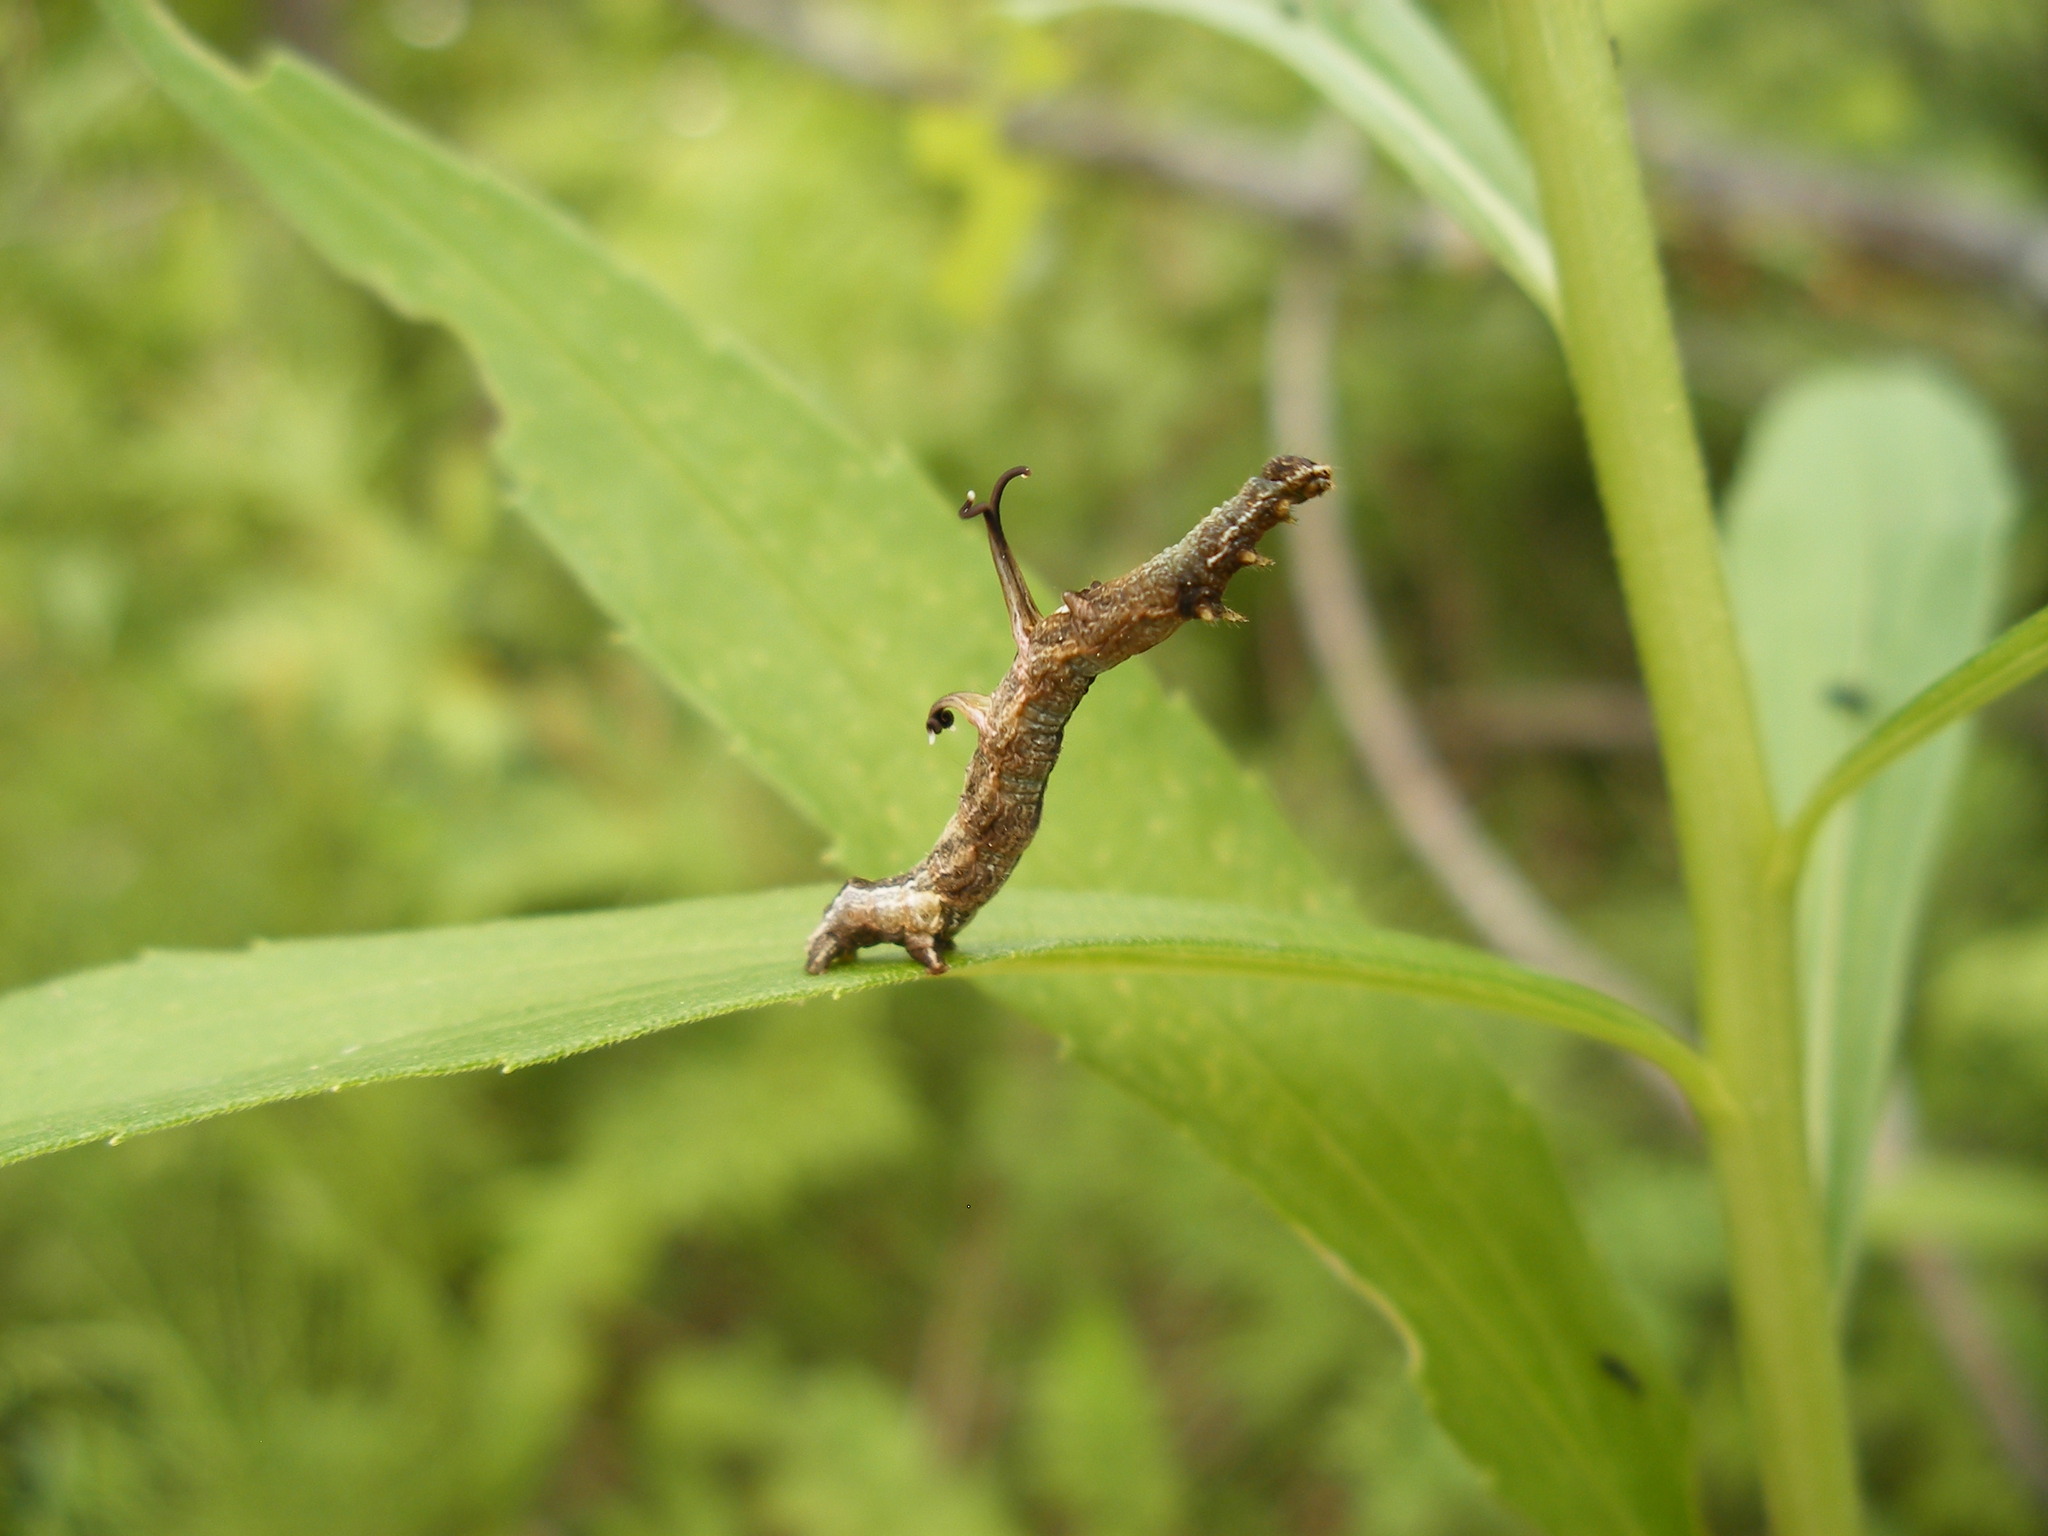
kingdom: Animalia
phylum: Arthropoda
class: Insecta
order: Lepidoptera
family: Geometridae
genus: Nematocampa
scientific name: Nematocampa resistaria
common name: Horned spanworm moth
